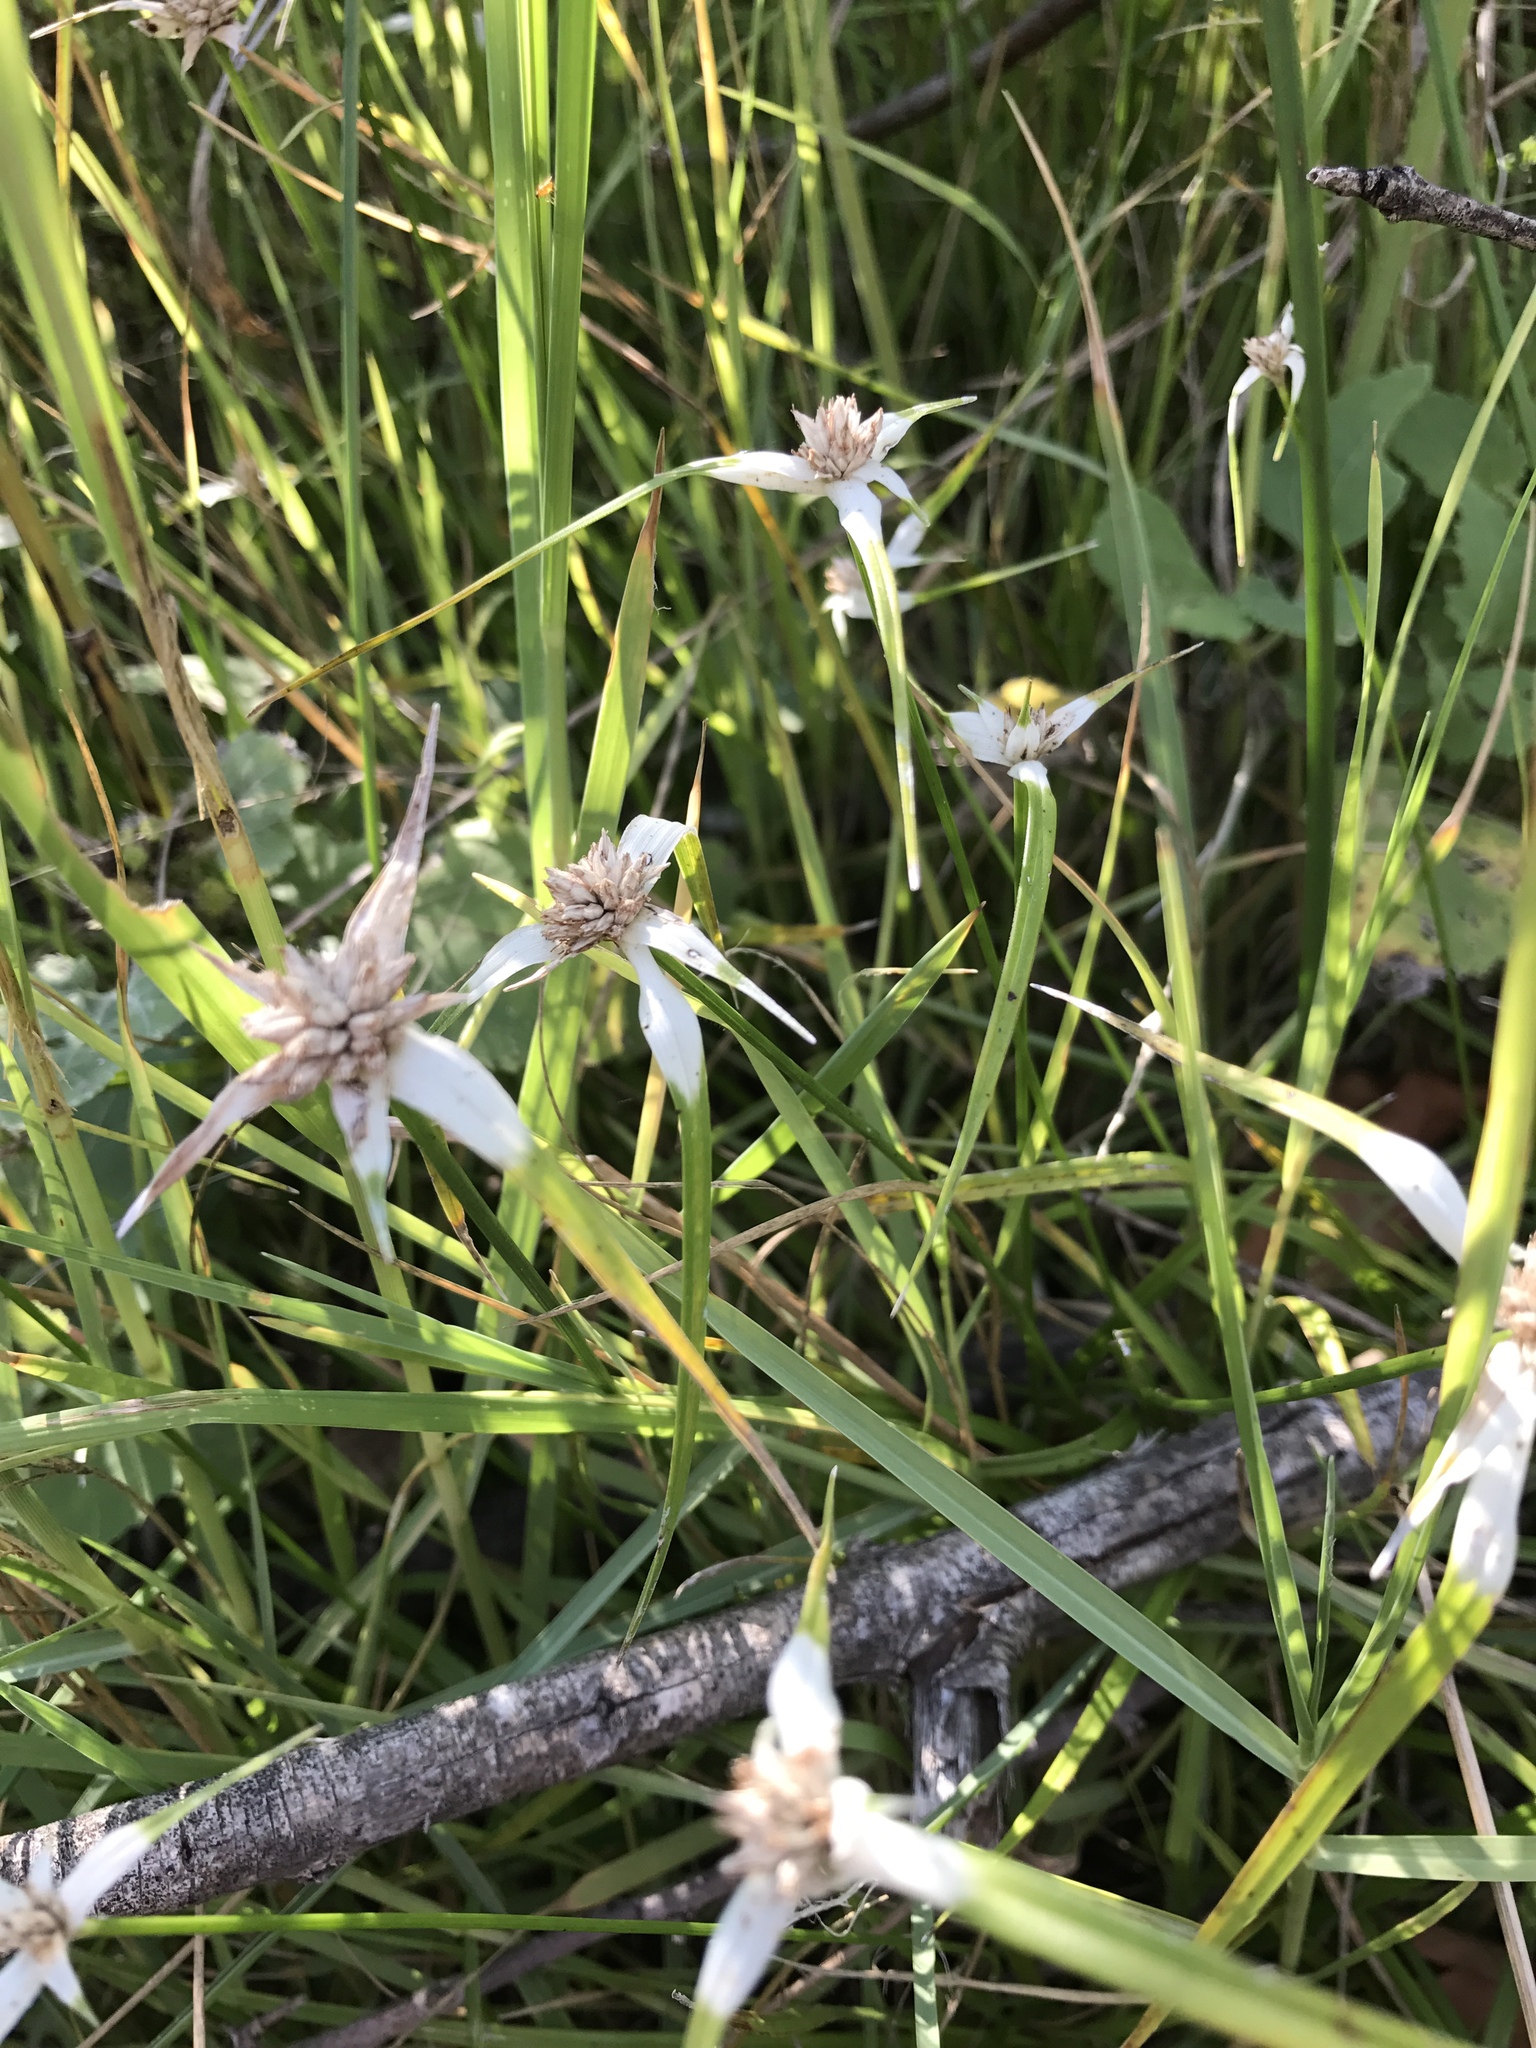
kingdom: Plantae
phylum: Tracheophyta
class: Liliopsida
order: Poales
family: Cyperaceae
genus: Rhynchospora
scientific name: Rhynchospora colorata
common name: Star sedge
